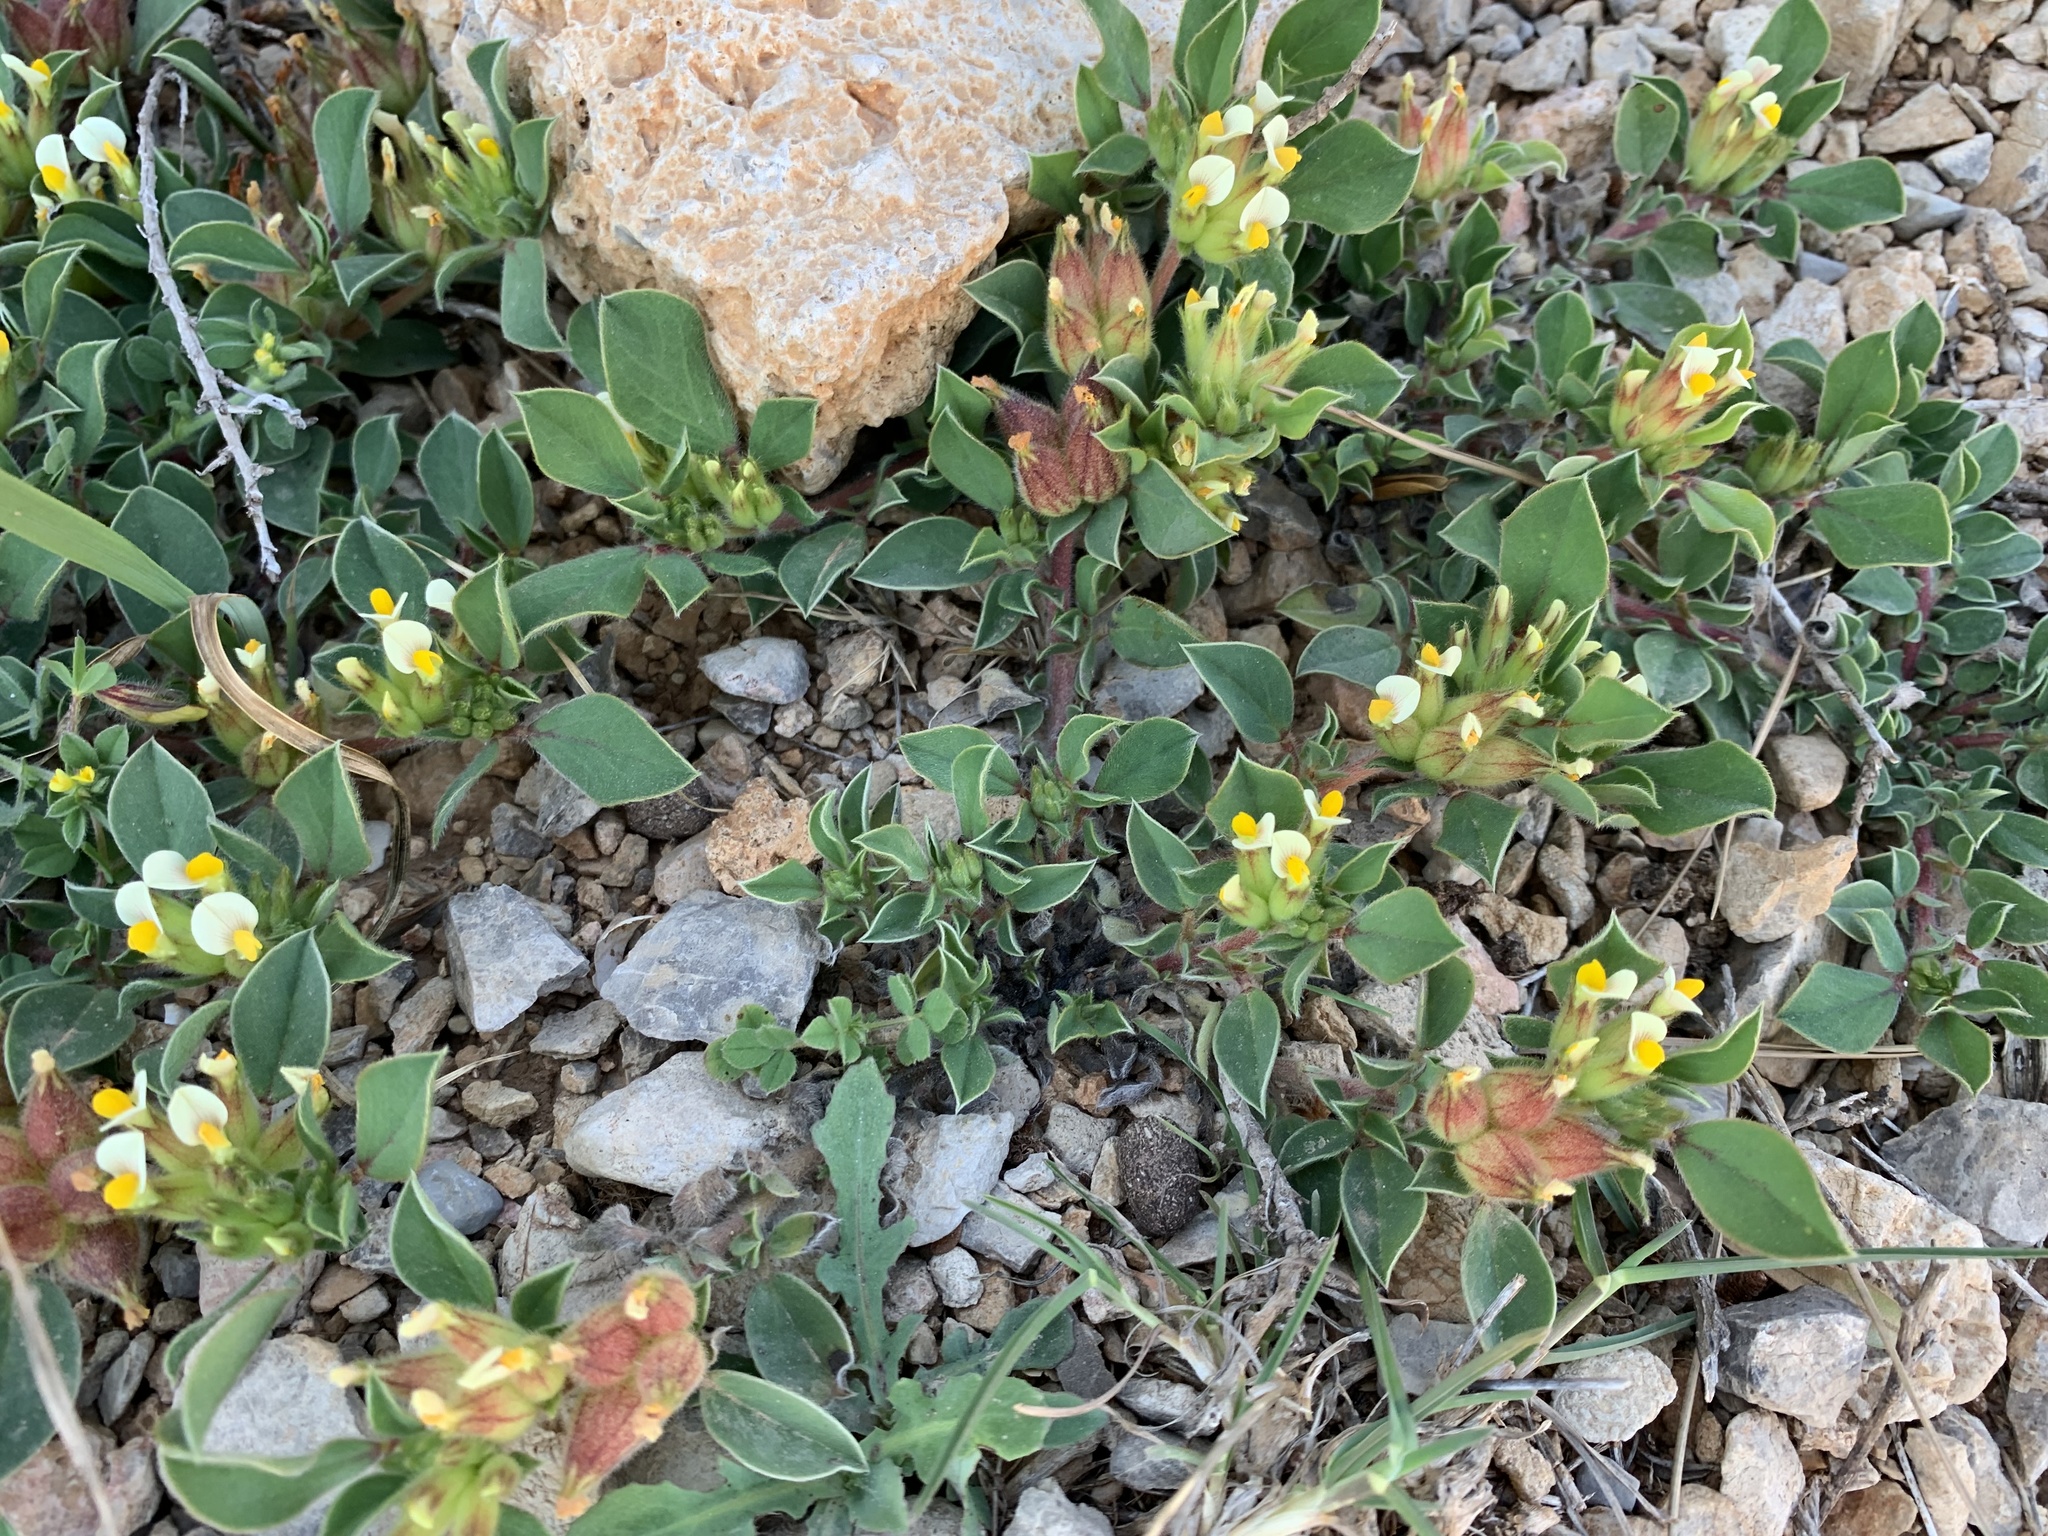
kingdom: Plantae
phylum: Tracheophyta
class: Magnoliopsida
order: Fabales
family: Fabaceae
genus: Tripodion
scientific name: Tripodion tetraphyllum
